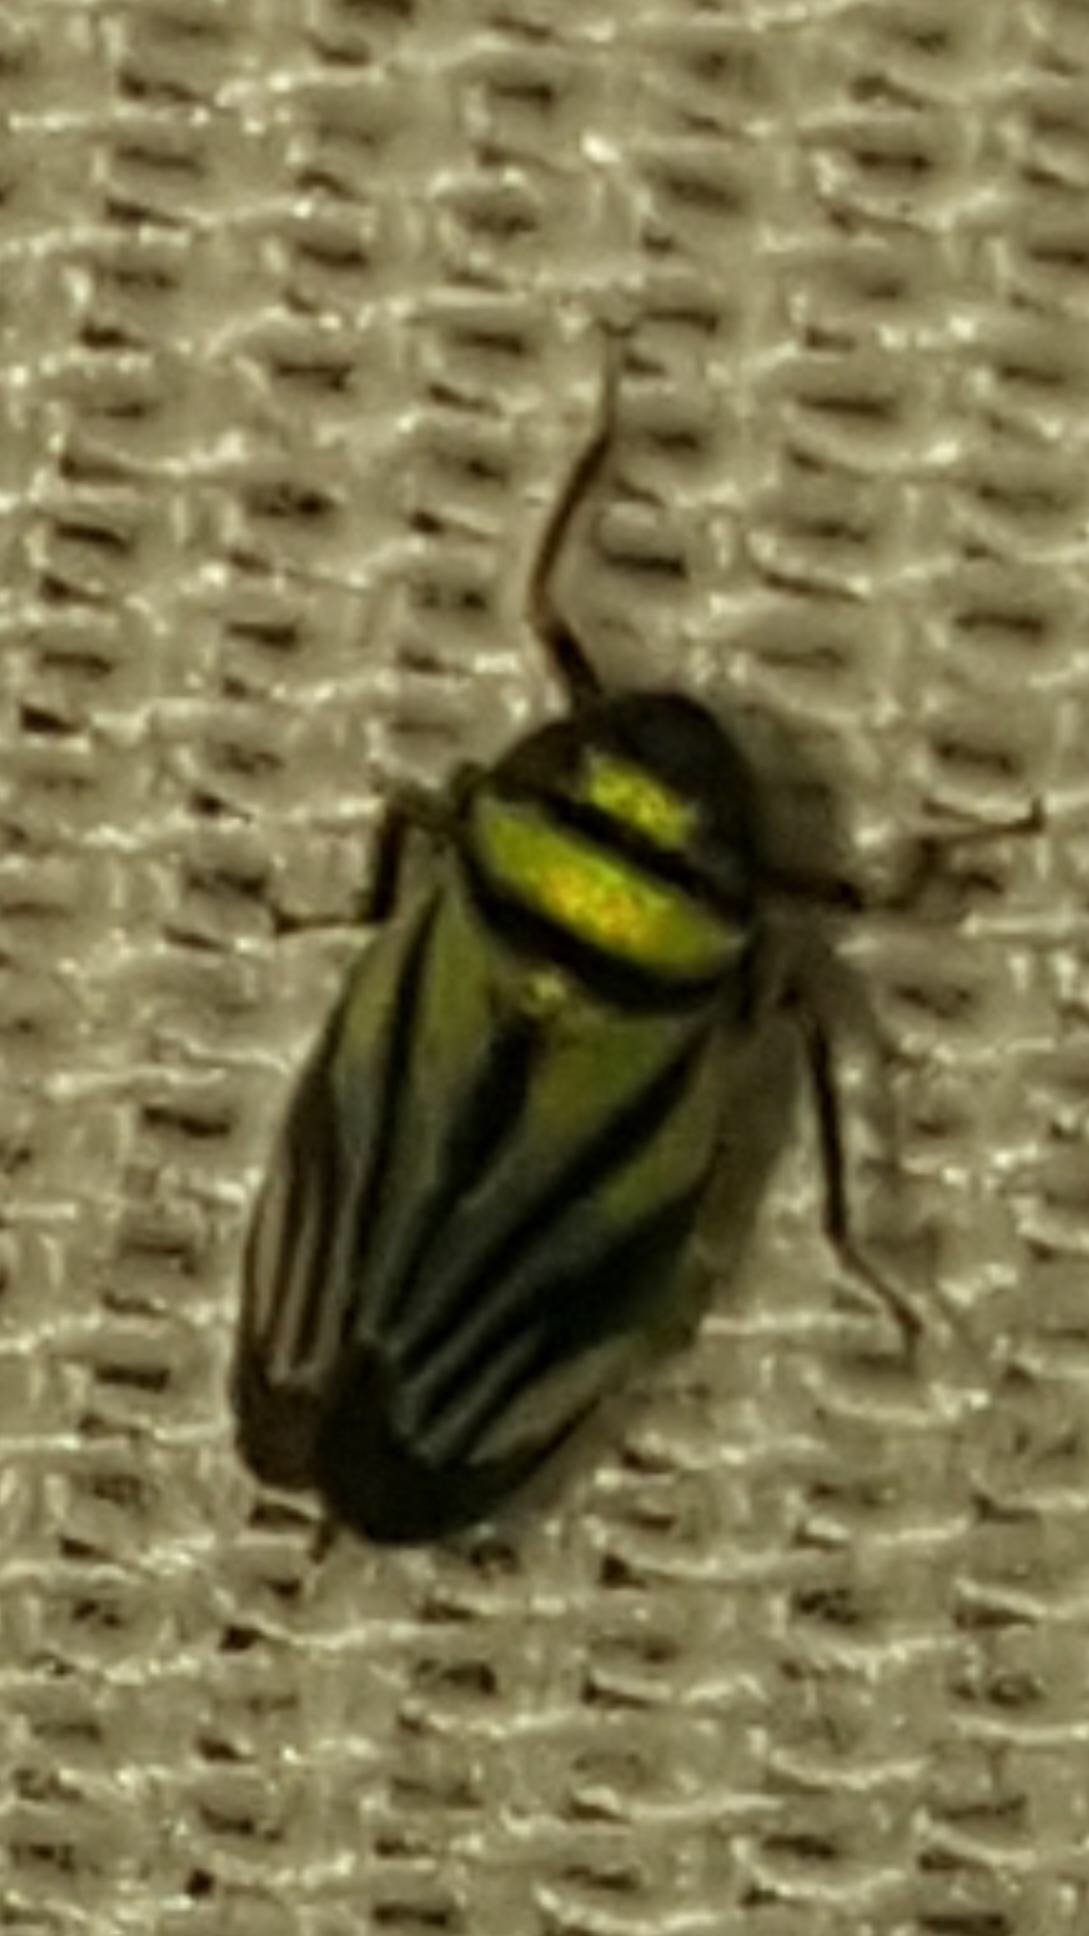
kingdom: Animalia
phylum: Arthropoda
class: Insecta
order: Hemiptera
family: Cicadellidae
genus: Stirellus
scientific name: Stirellus bicolor
